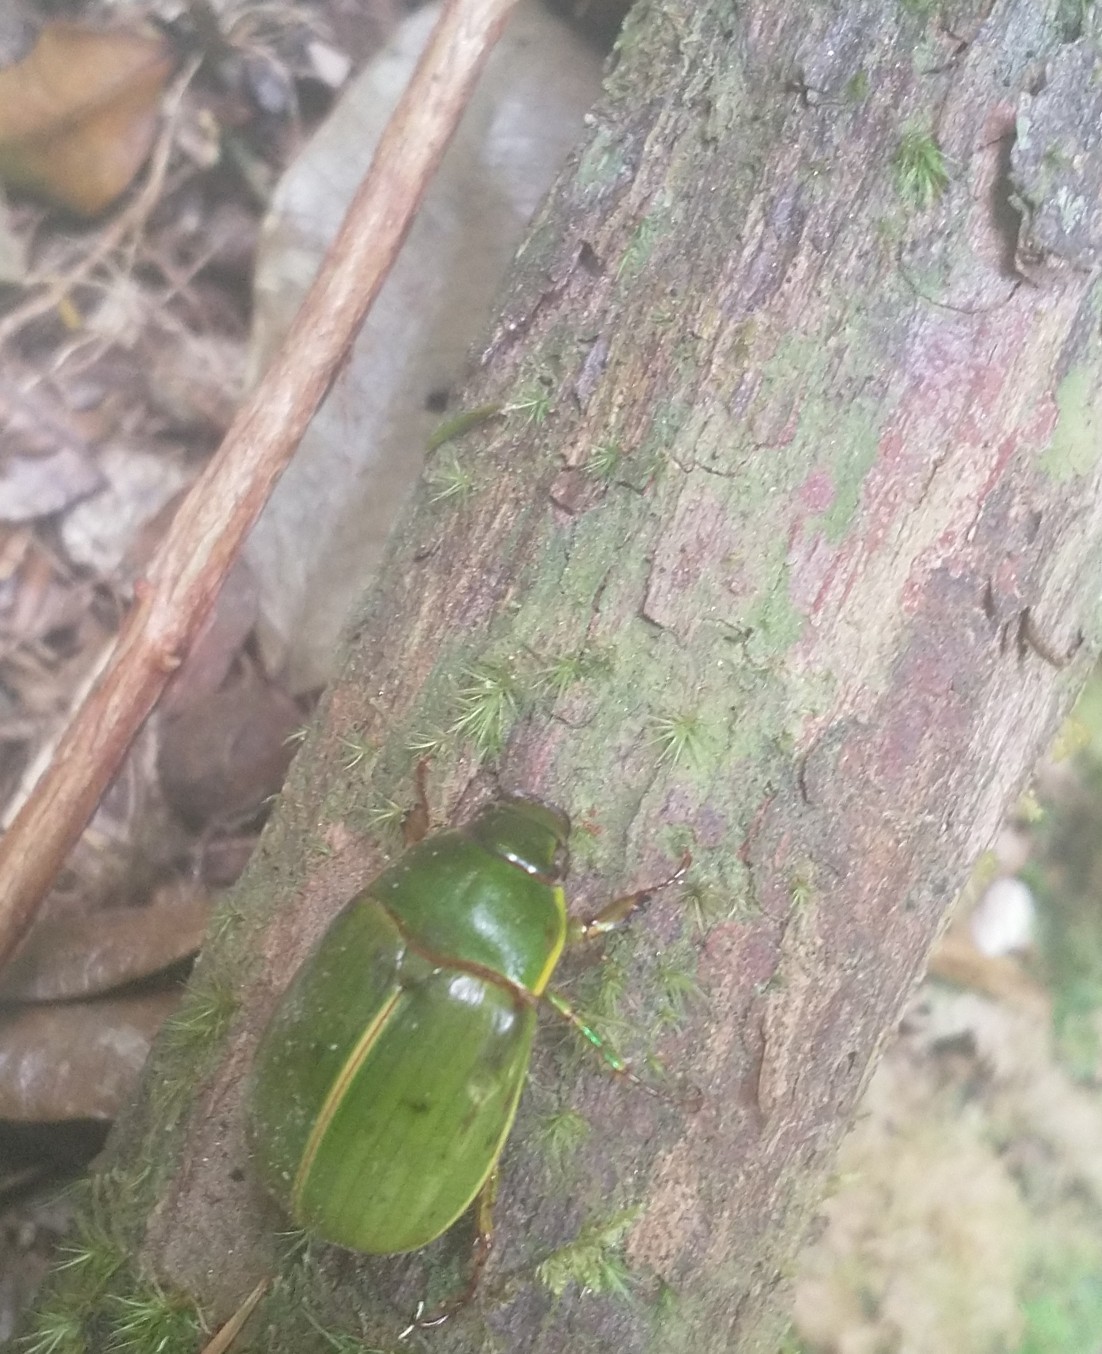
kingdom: Animalia
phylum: Arthropoda
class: Insecta
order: Coleoptera
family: Scarabaeidae
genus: Stethaspis
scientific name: Stethaspis suturalis
